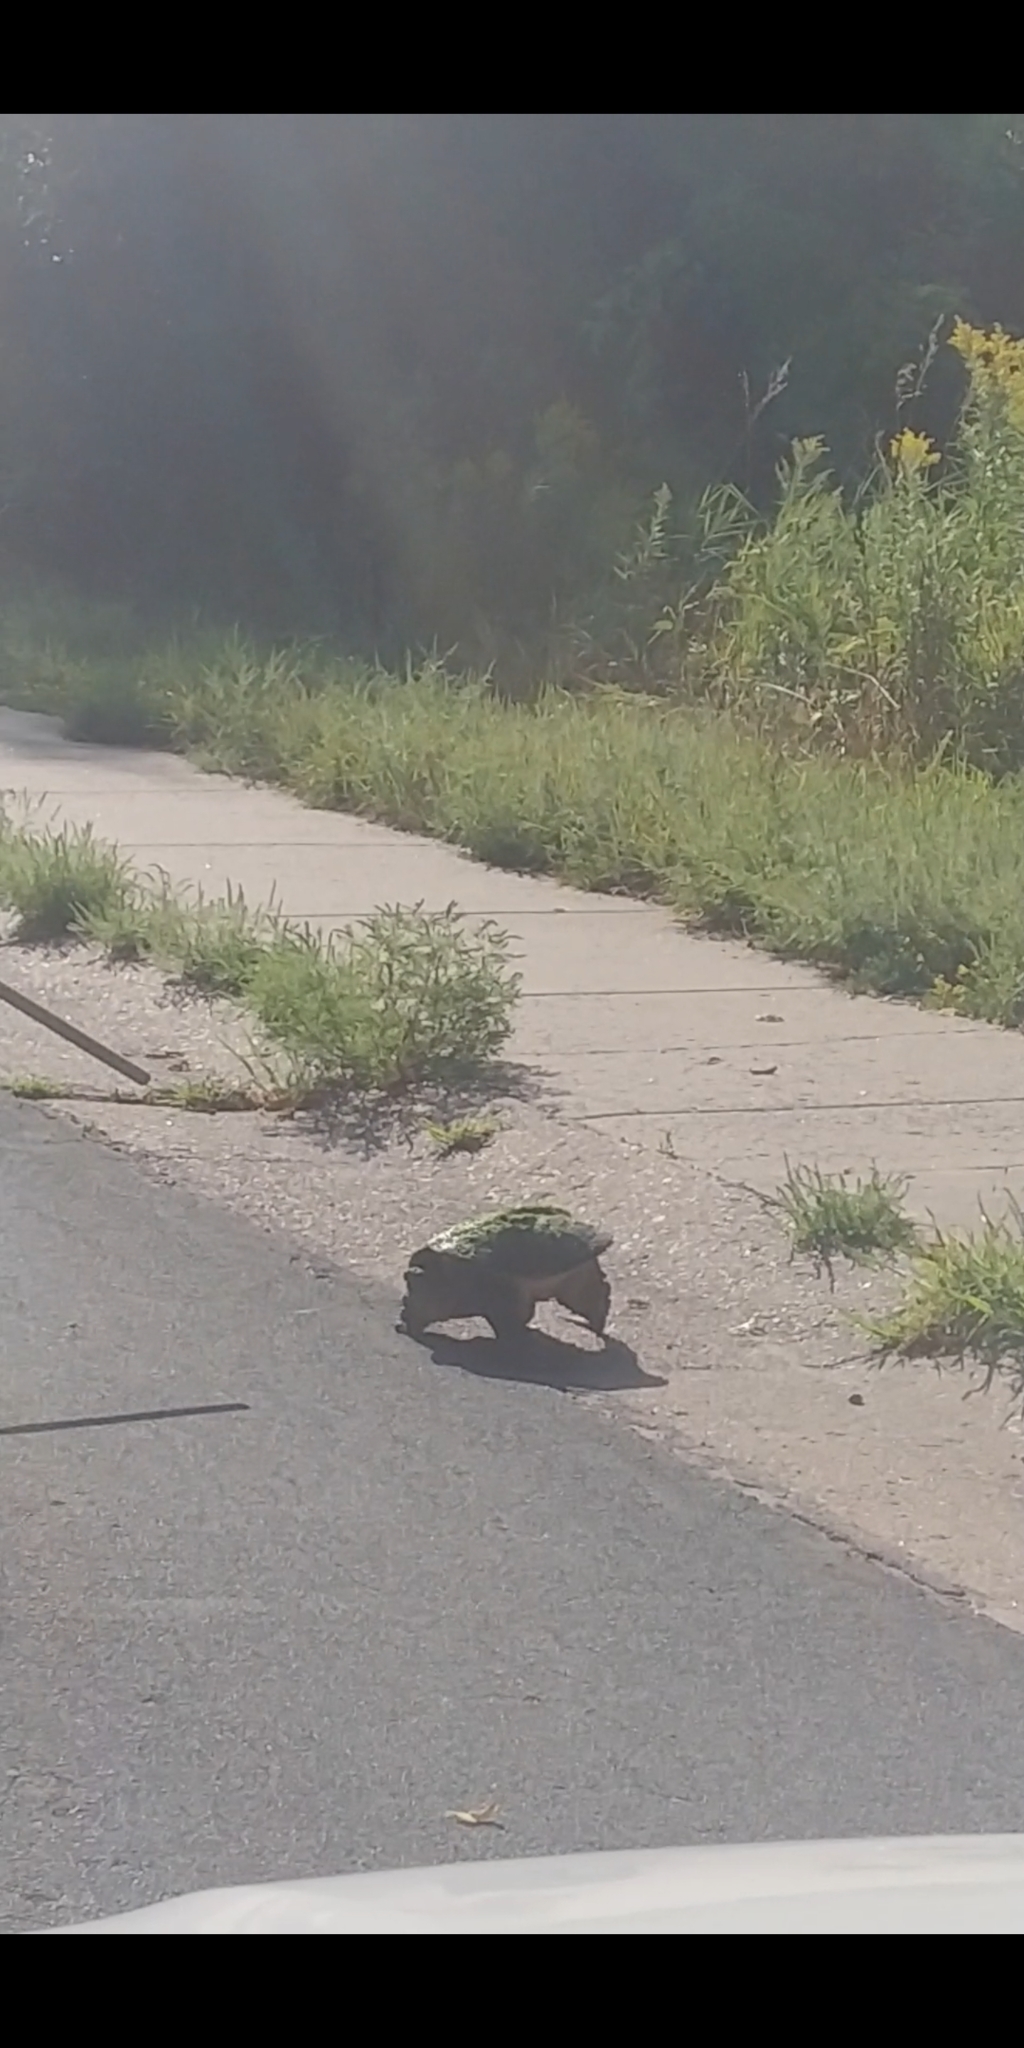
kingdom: Animalia
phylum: Chordata
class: Testudines
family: Chelydridae
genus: Chelydra
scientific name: Chelydra serpentina
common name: Common snapping turtle
